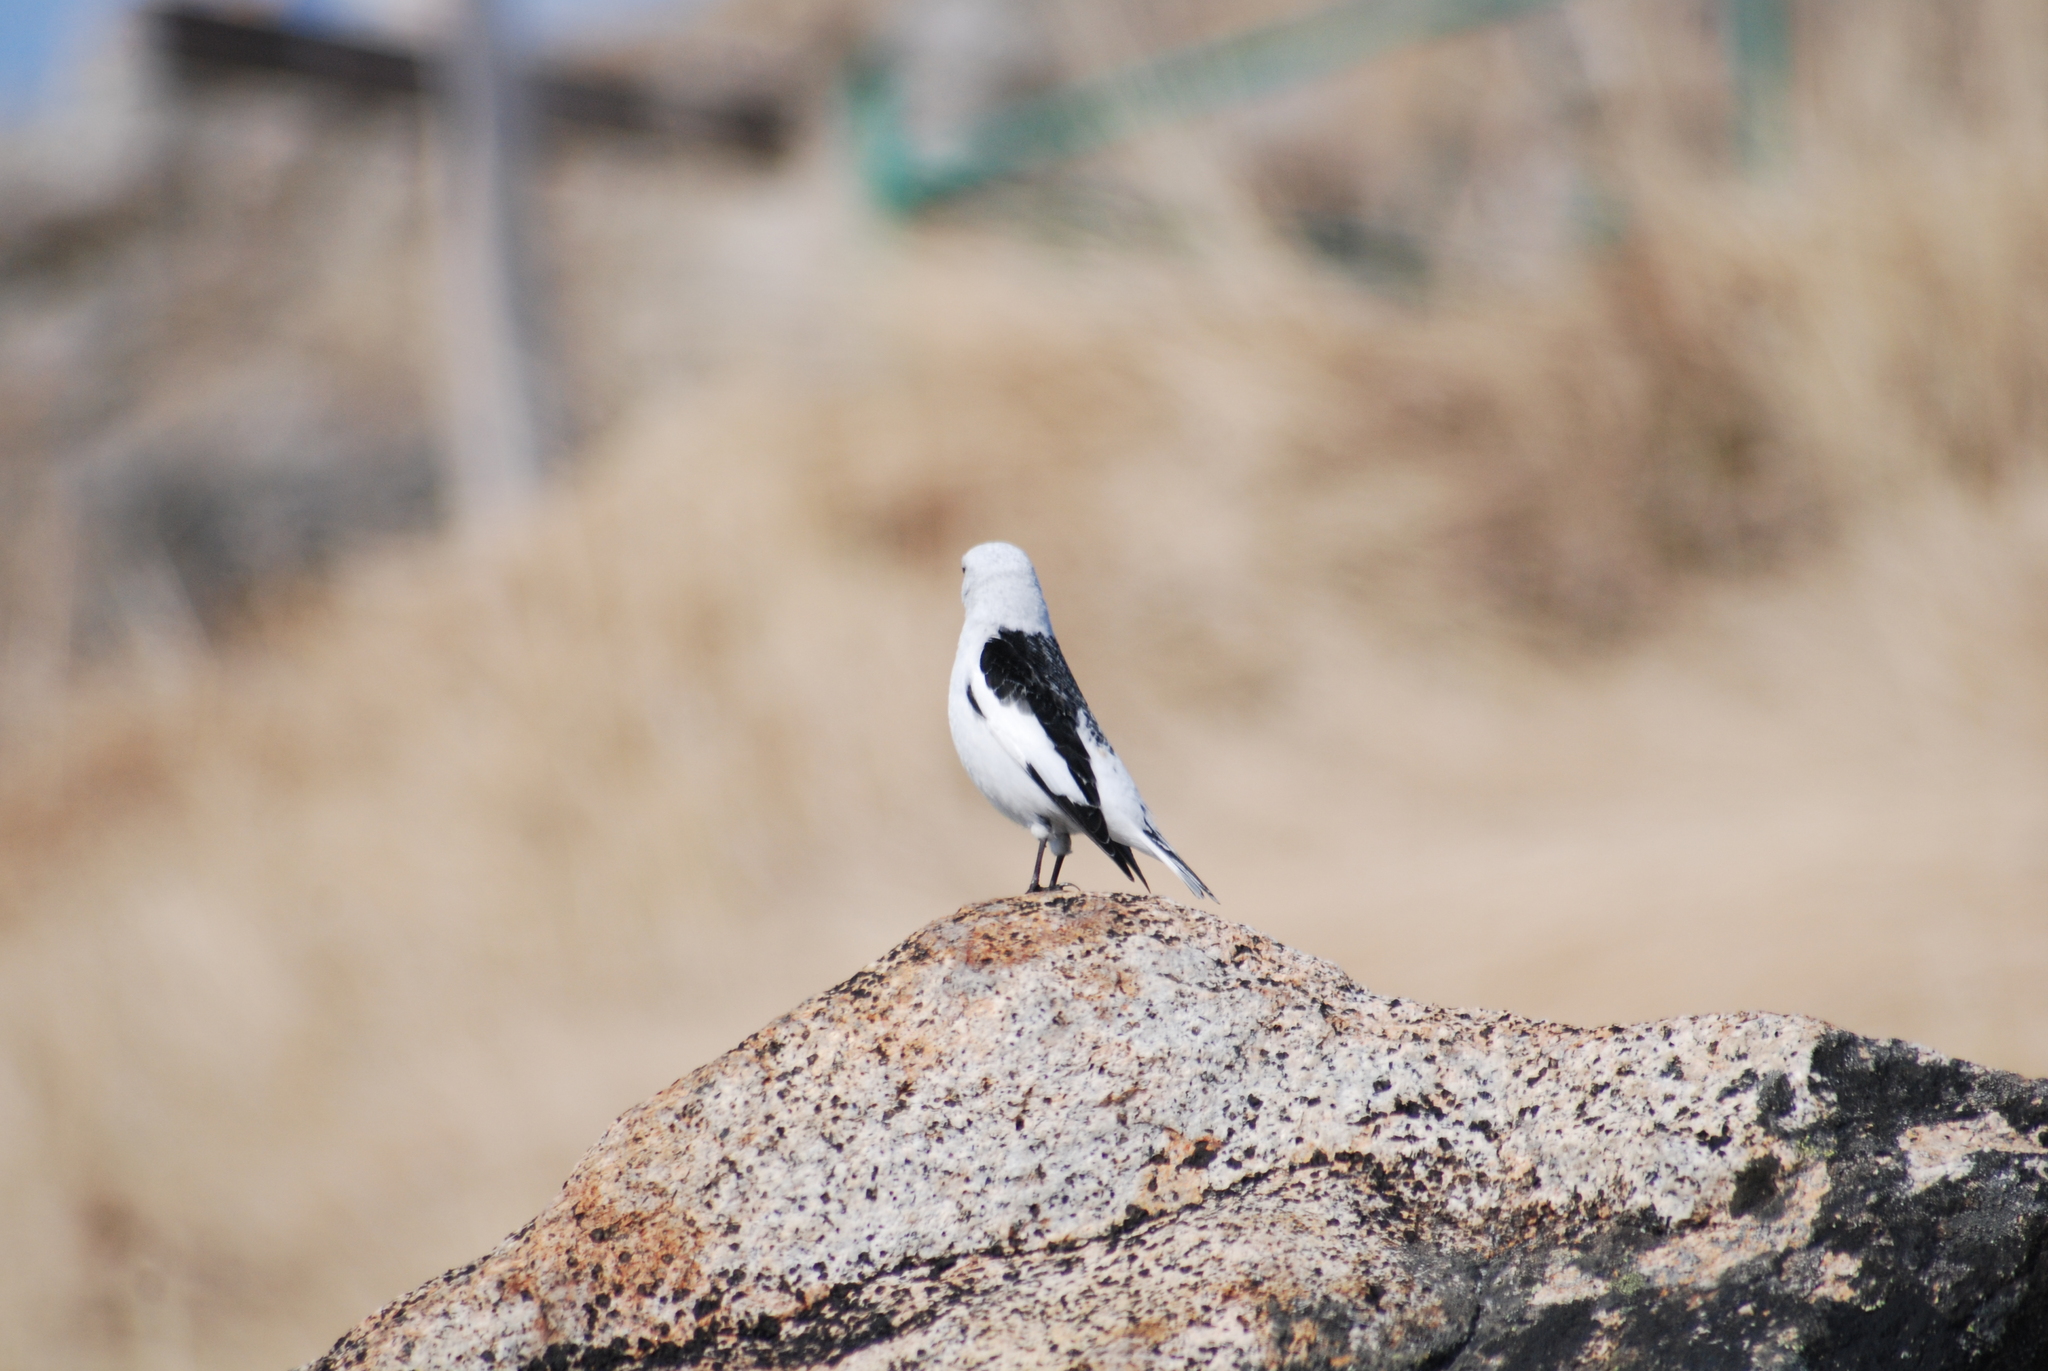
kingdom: Animalia
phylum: Chordata
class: Aves
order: Passeriformes
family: Calcariidae
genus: Plectrophenax
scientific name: Plectrophenax nivalis
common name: Snow bunting
